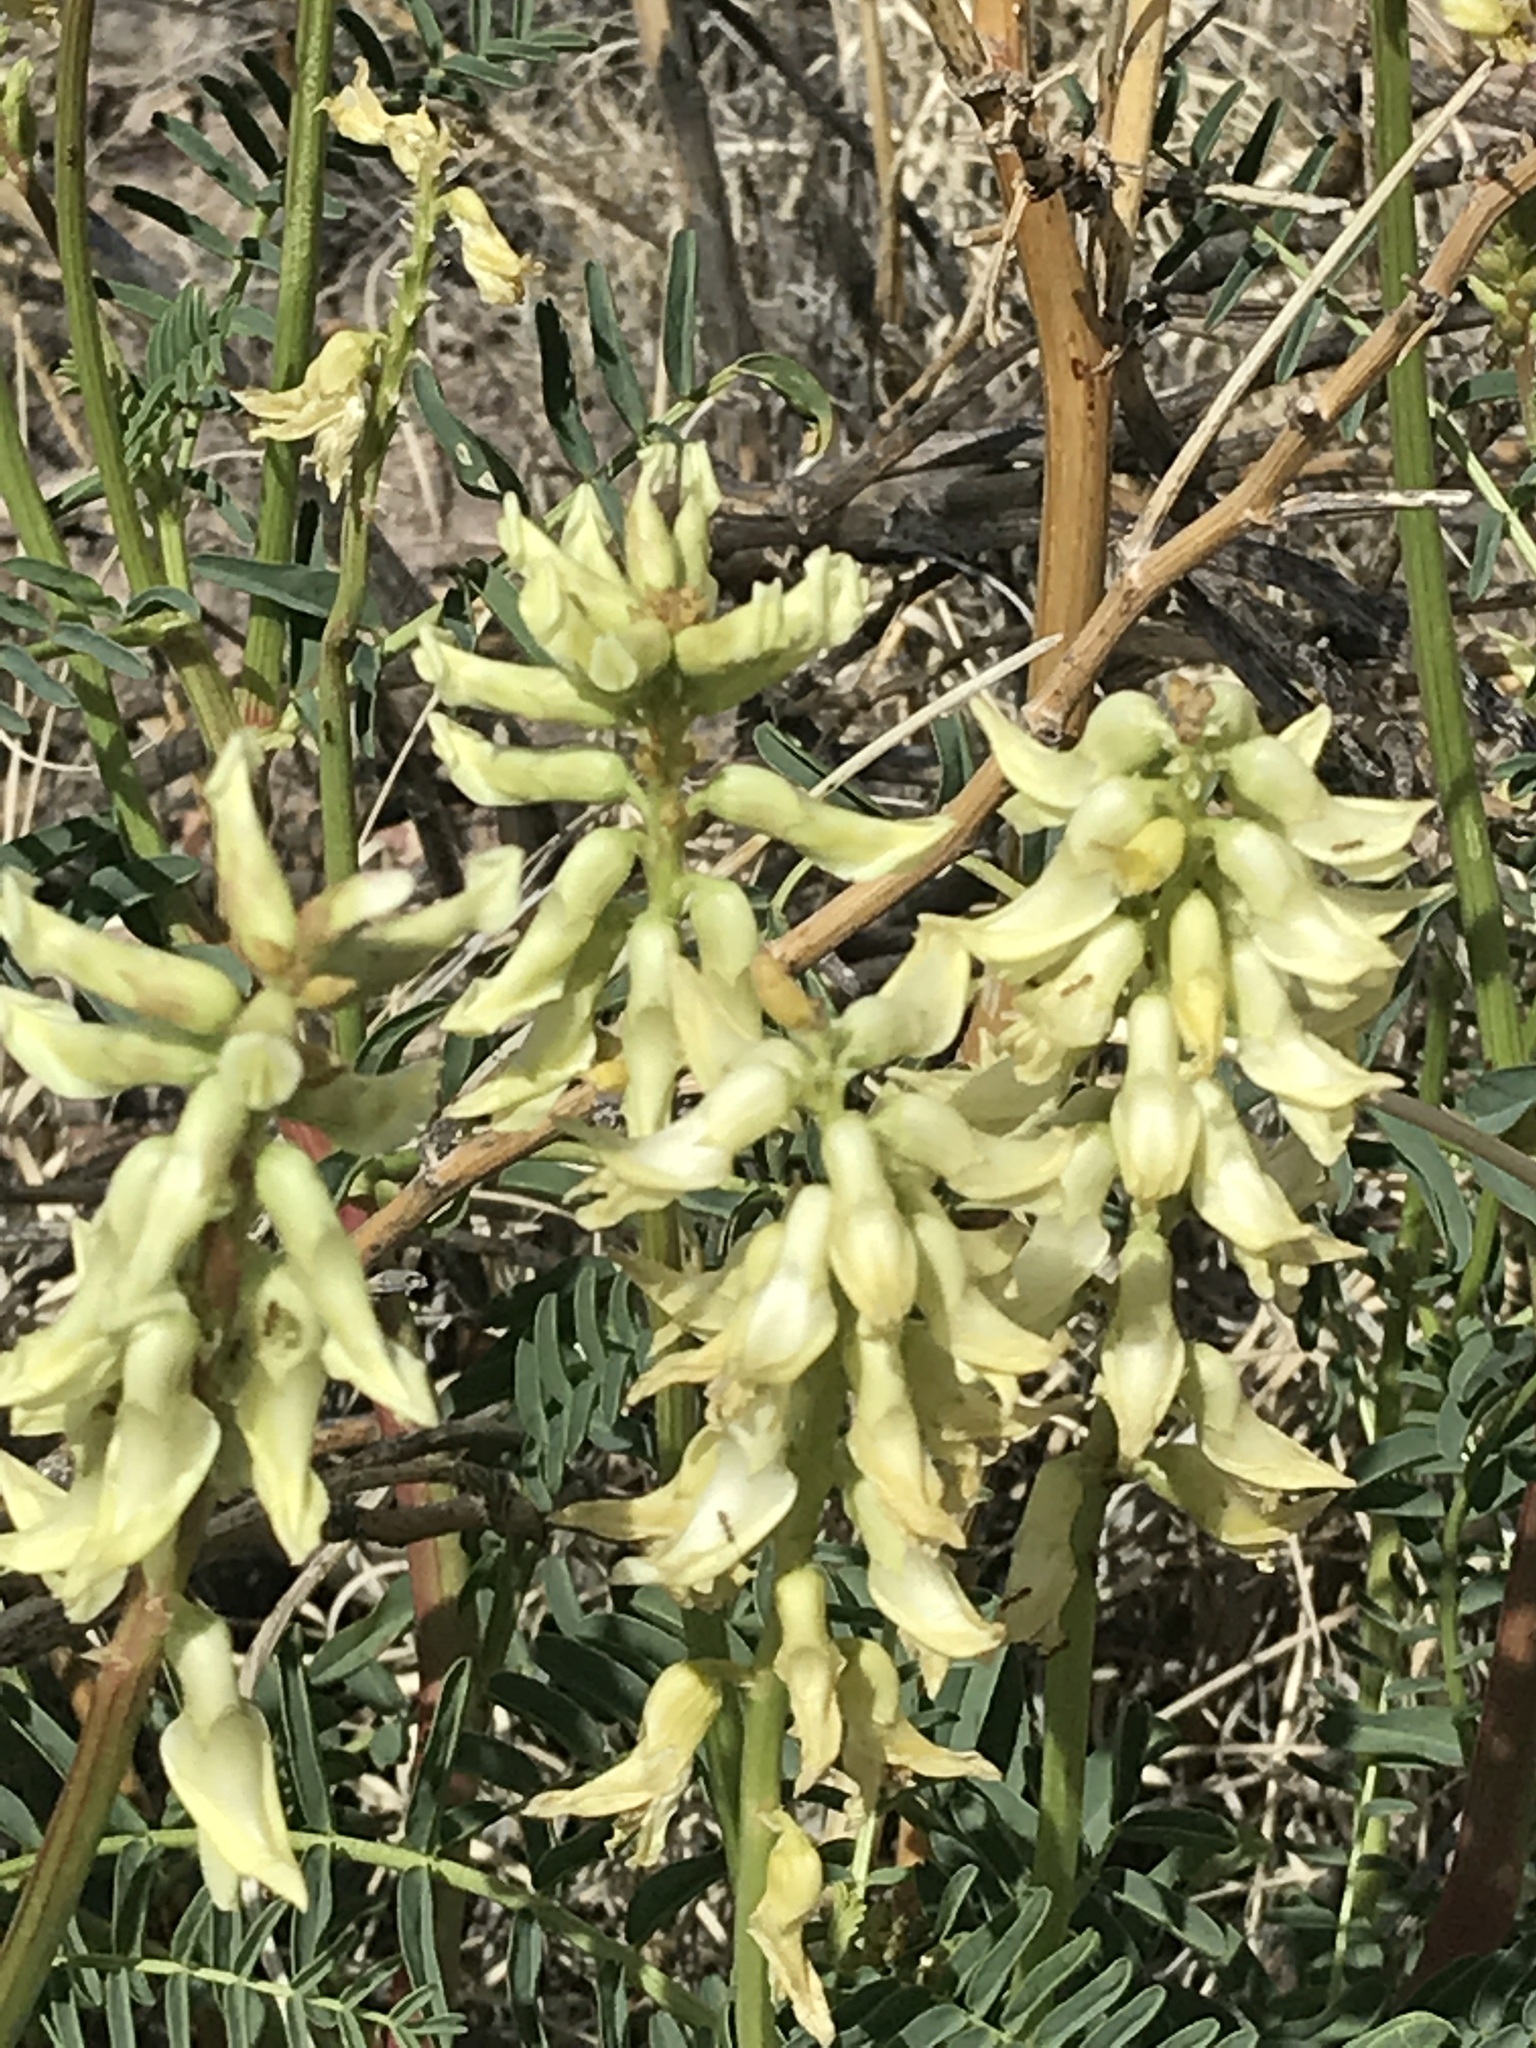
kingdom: Plantae
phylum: Tracheophyta
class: Magnoliopsida
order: Fabales
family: Fabaceae
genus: Astragalus
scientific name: Astragalus praelongus
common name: Stinking milk-vetch
